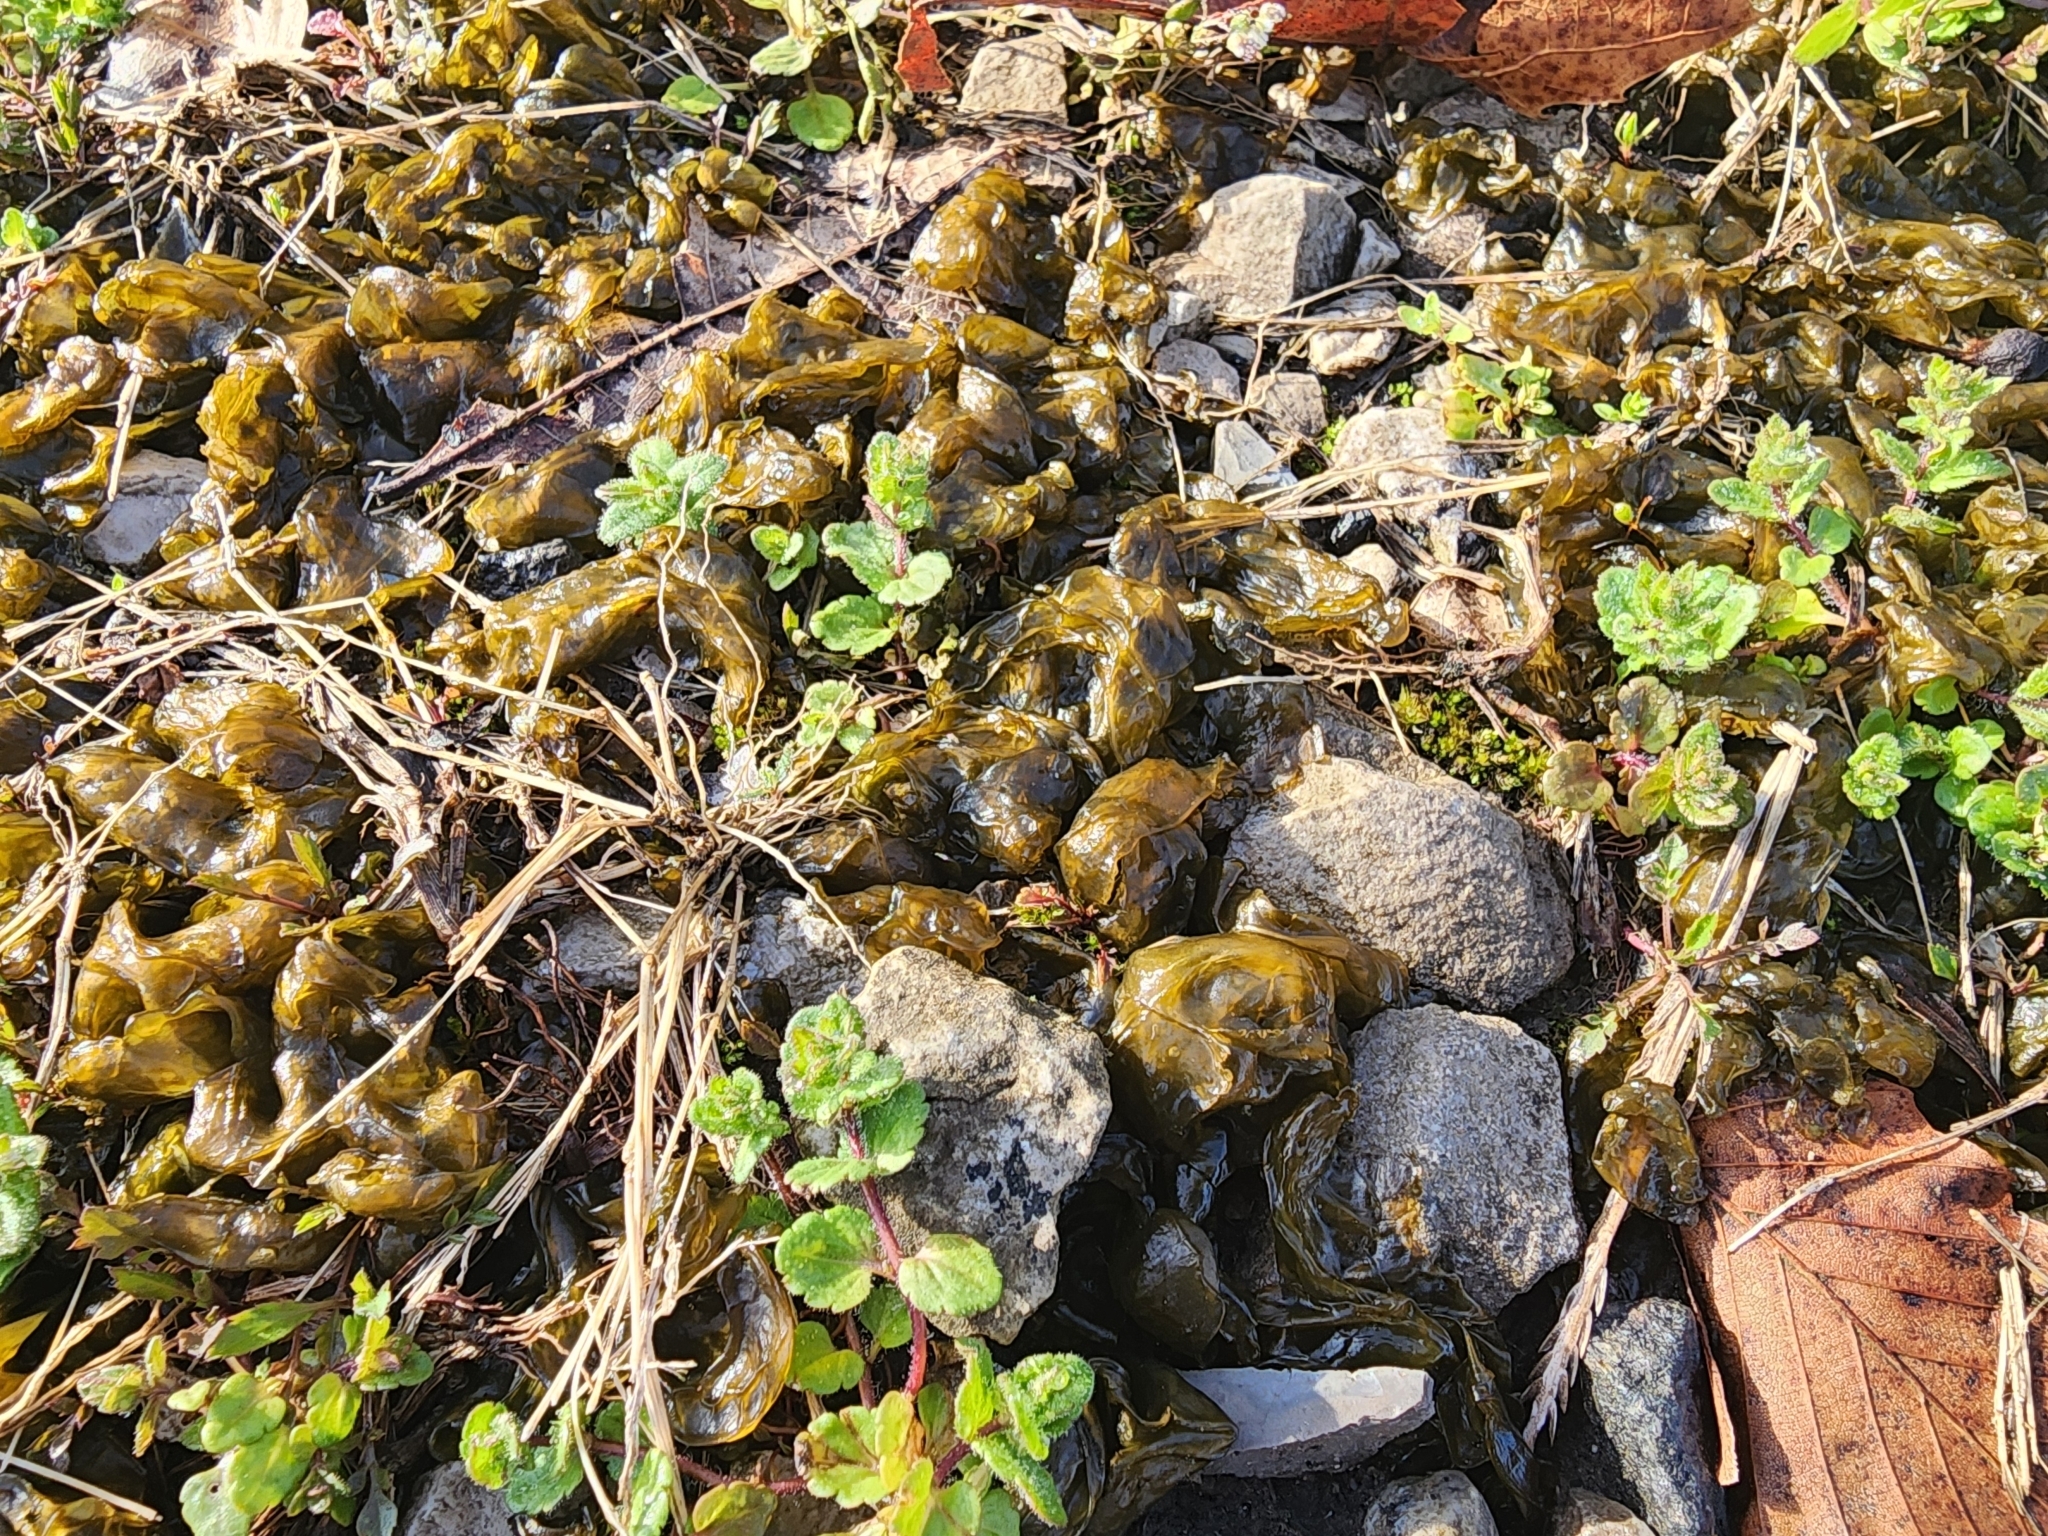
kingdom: Bacteria
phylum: Cyanobacteria
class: Cyanobacteriia
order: Cyanobacteriales
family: Nostocaceae
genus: Nostoc
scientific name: Nostoc commune
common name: Star jelly
